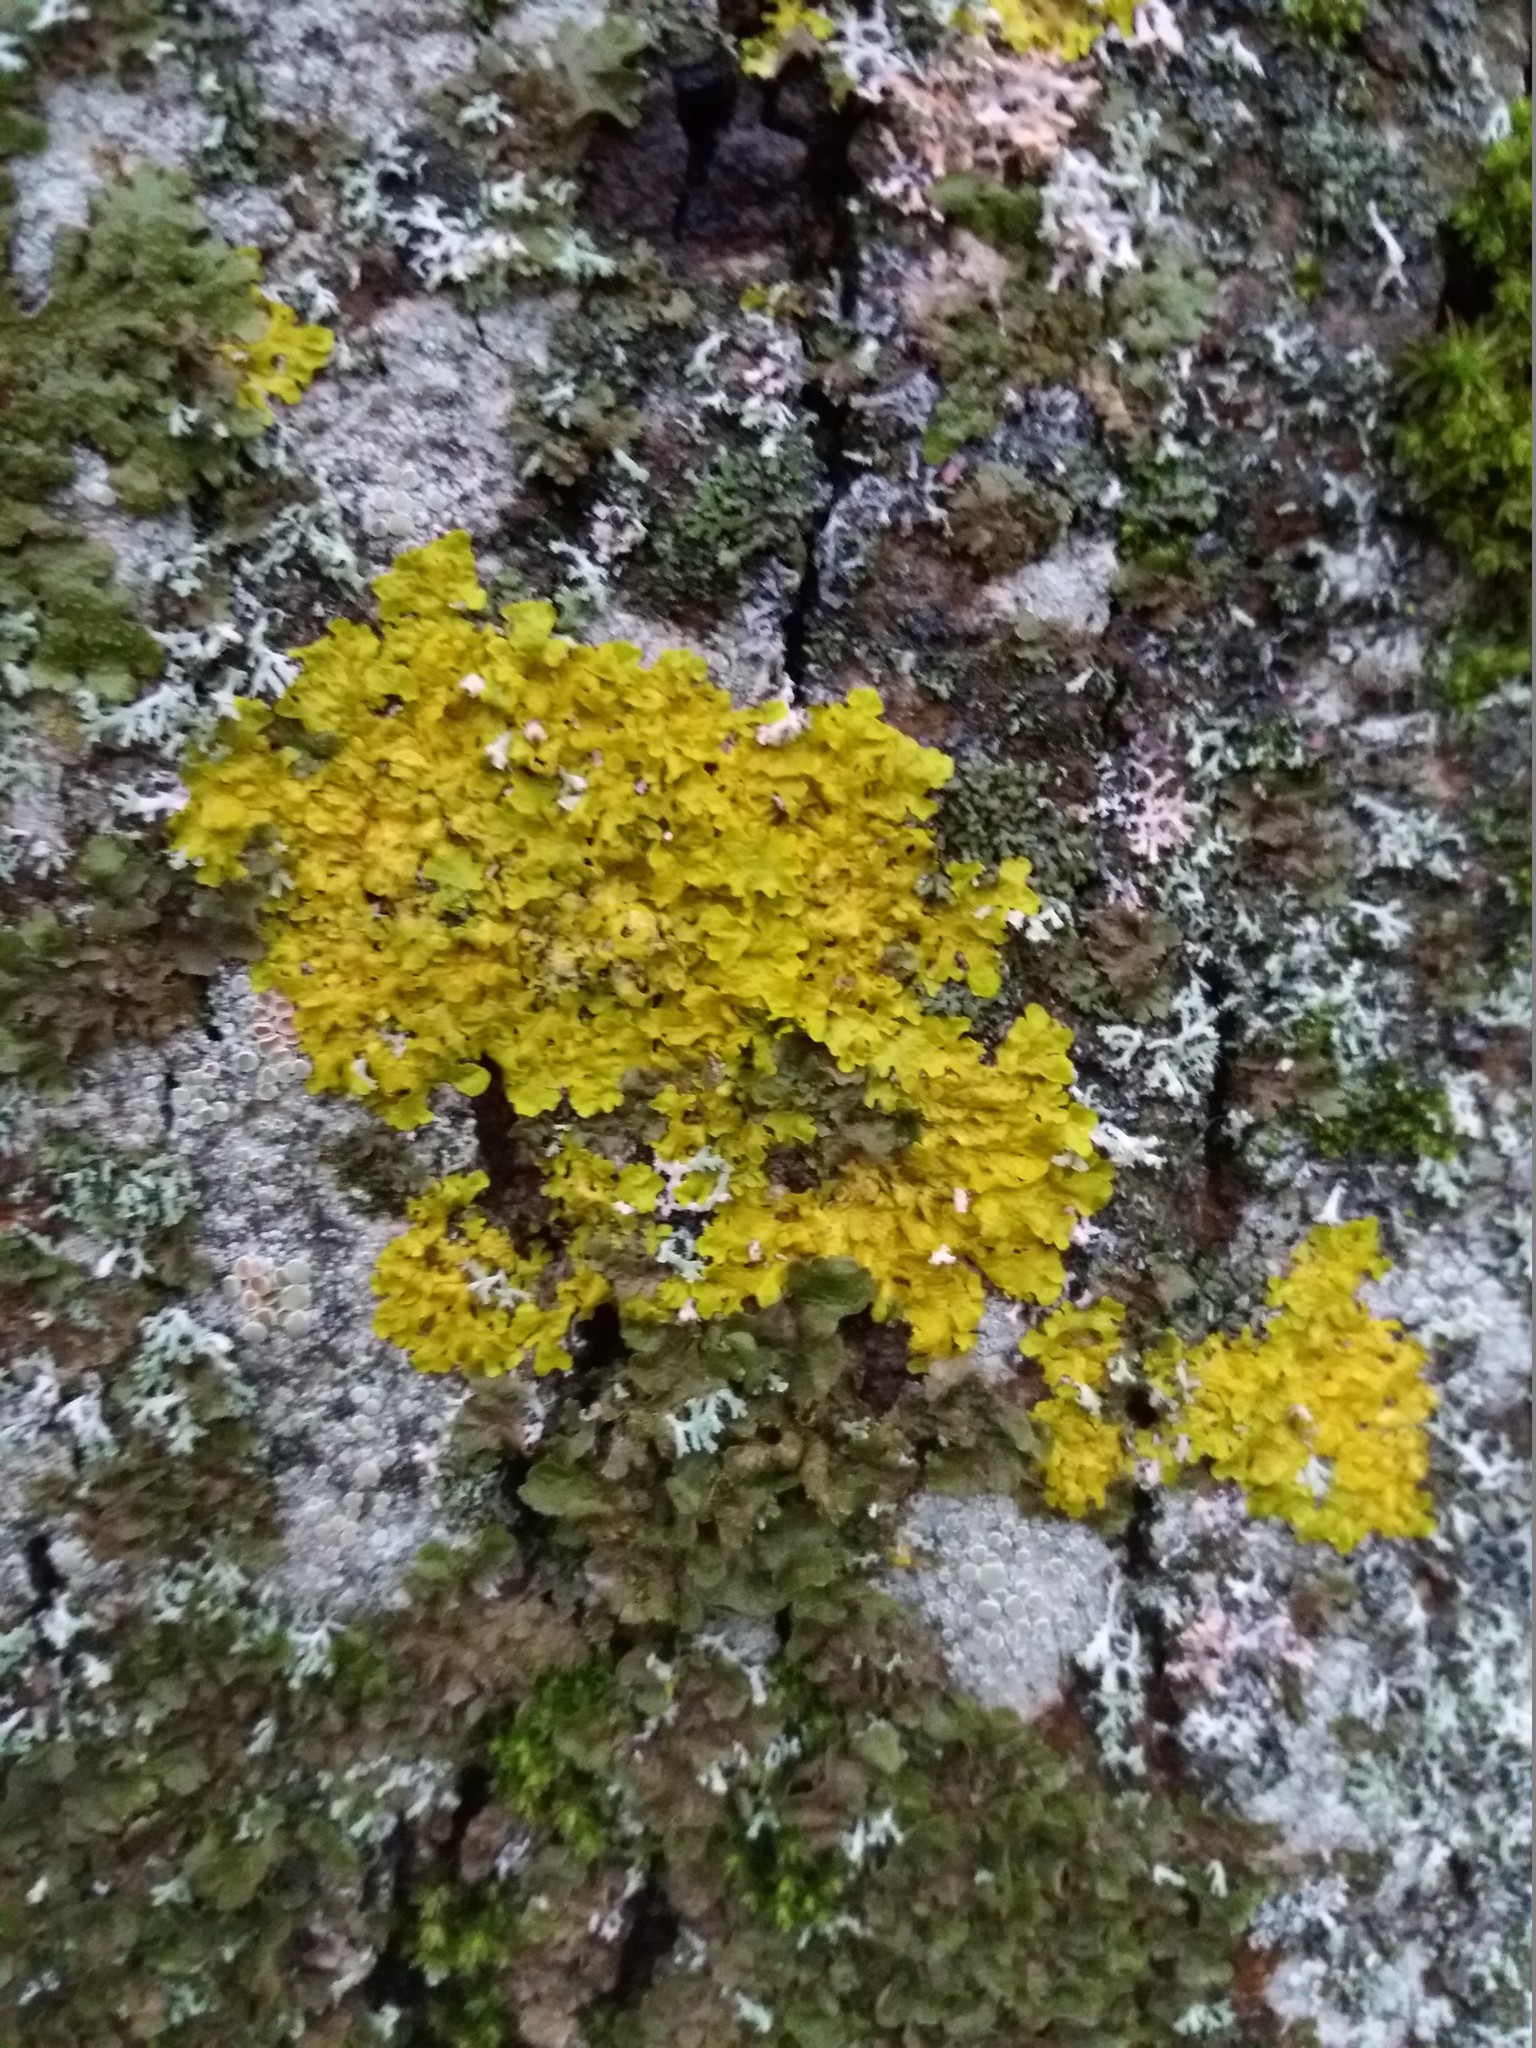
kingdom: Fungi
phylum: Ascomycota
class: Lecanoromycetes
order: Teloschistales
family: Teloschistaceae
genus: Xanthoria
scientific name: Xanthoria parietina
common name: Common orange lichen
